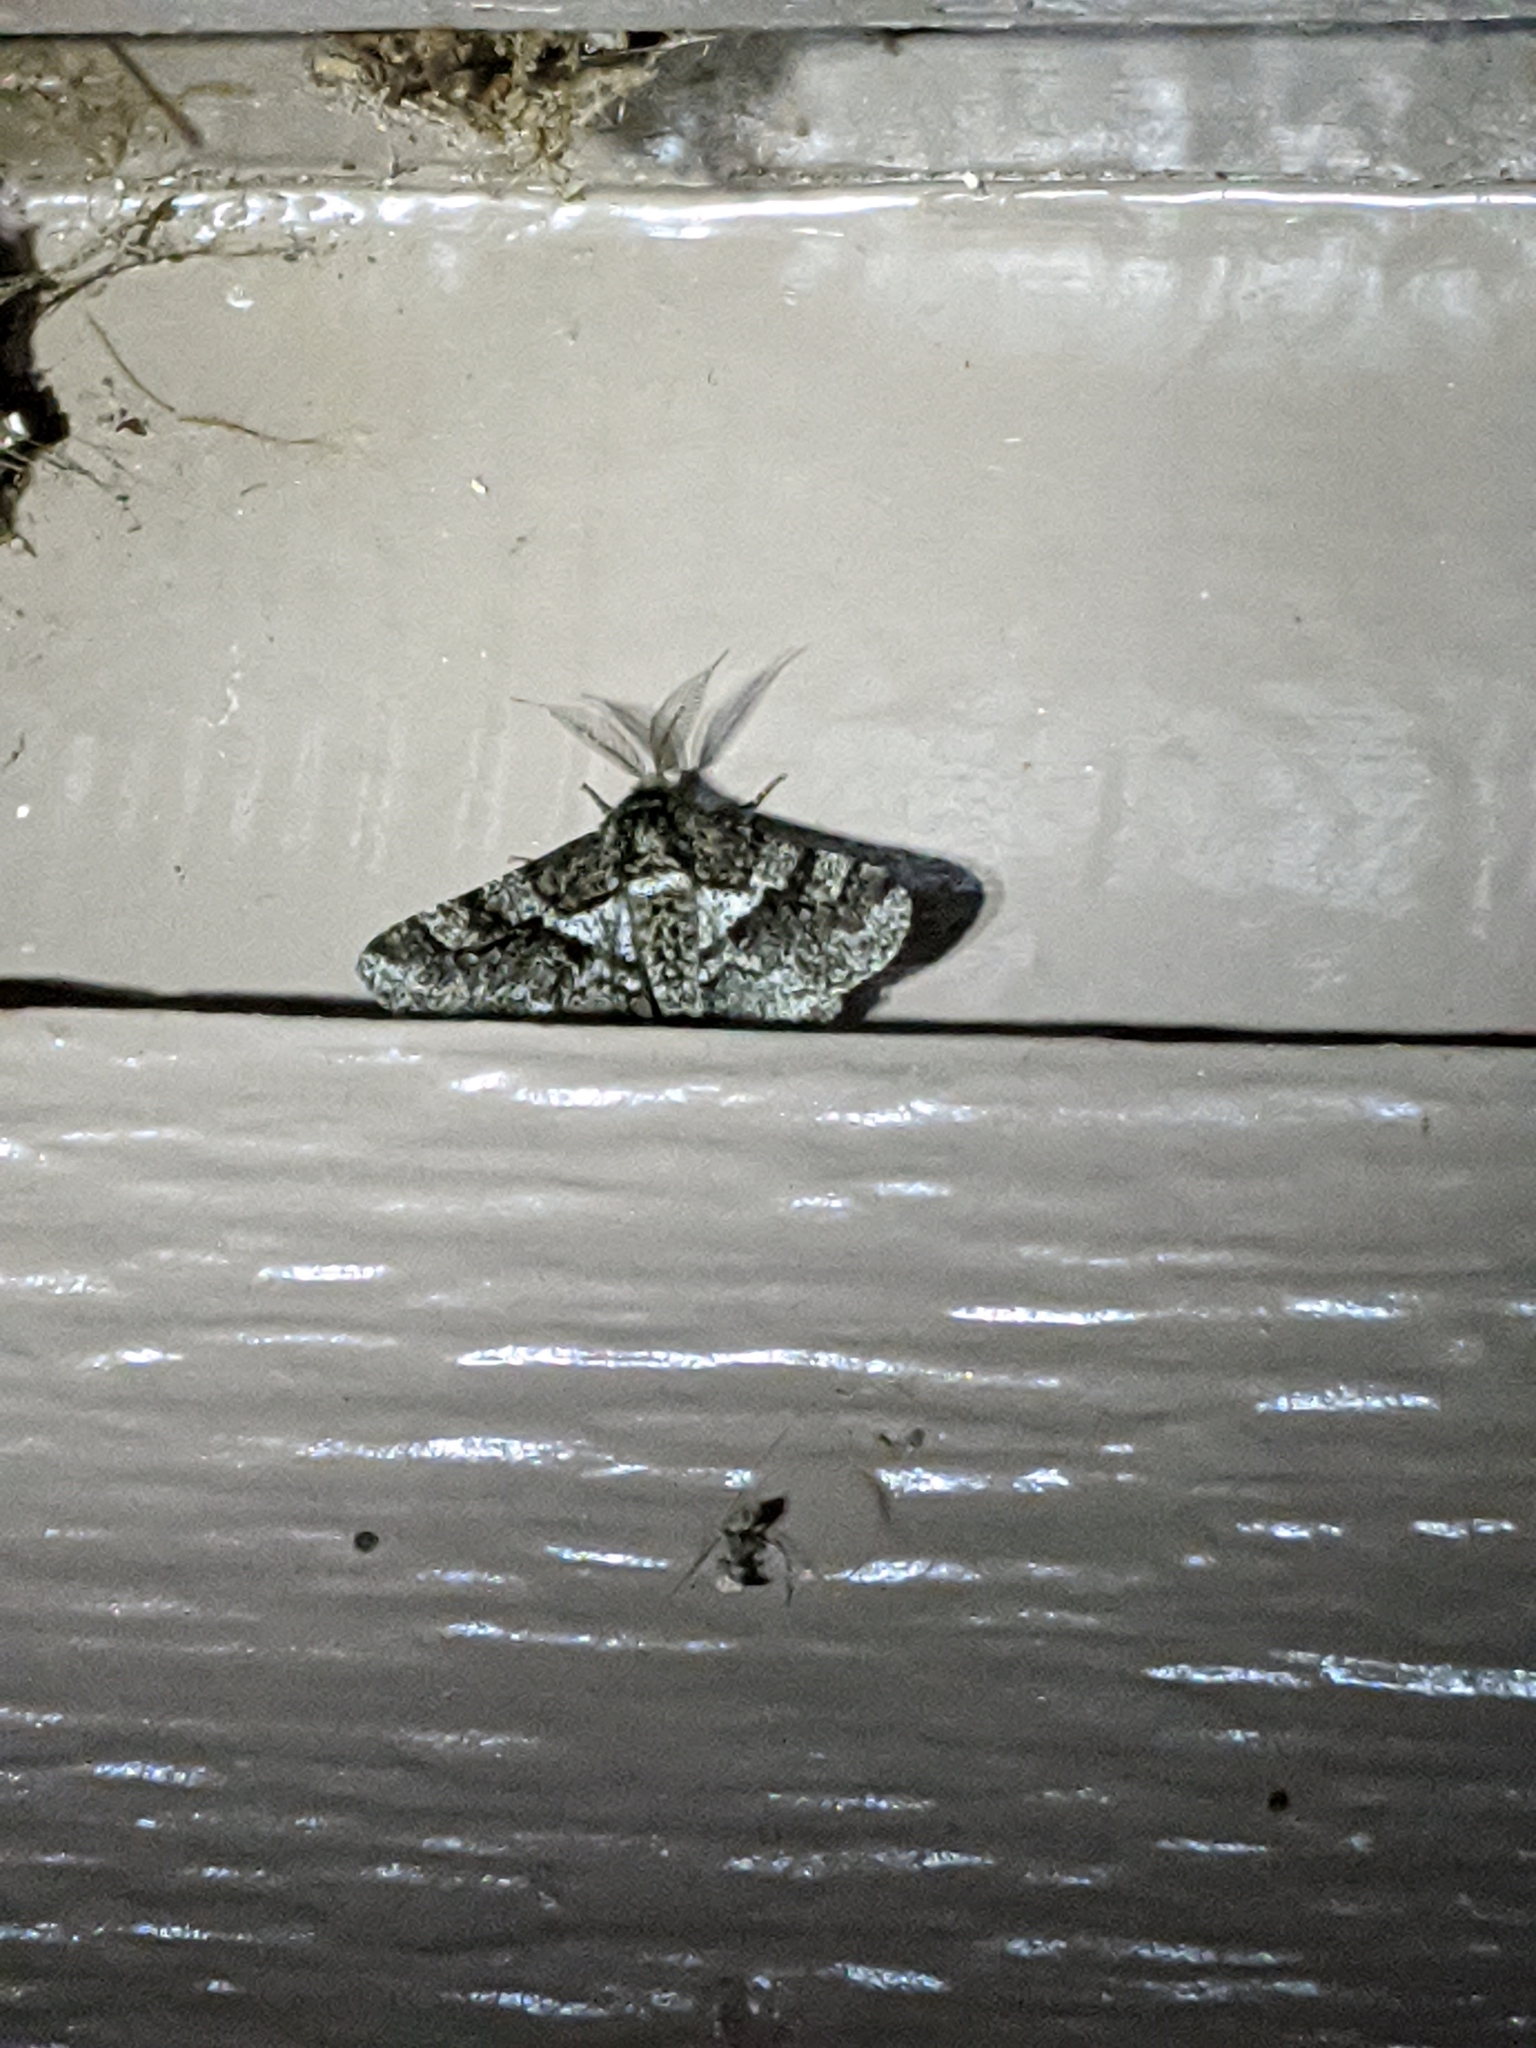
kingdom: Animalia
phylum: Arthropoda
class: Insecta
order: Lepidoptera
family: Geometridae
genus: Lycia
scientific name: Lycia ypsilon
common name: Wooly gray
